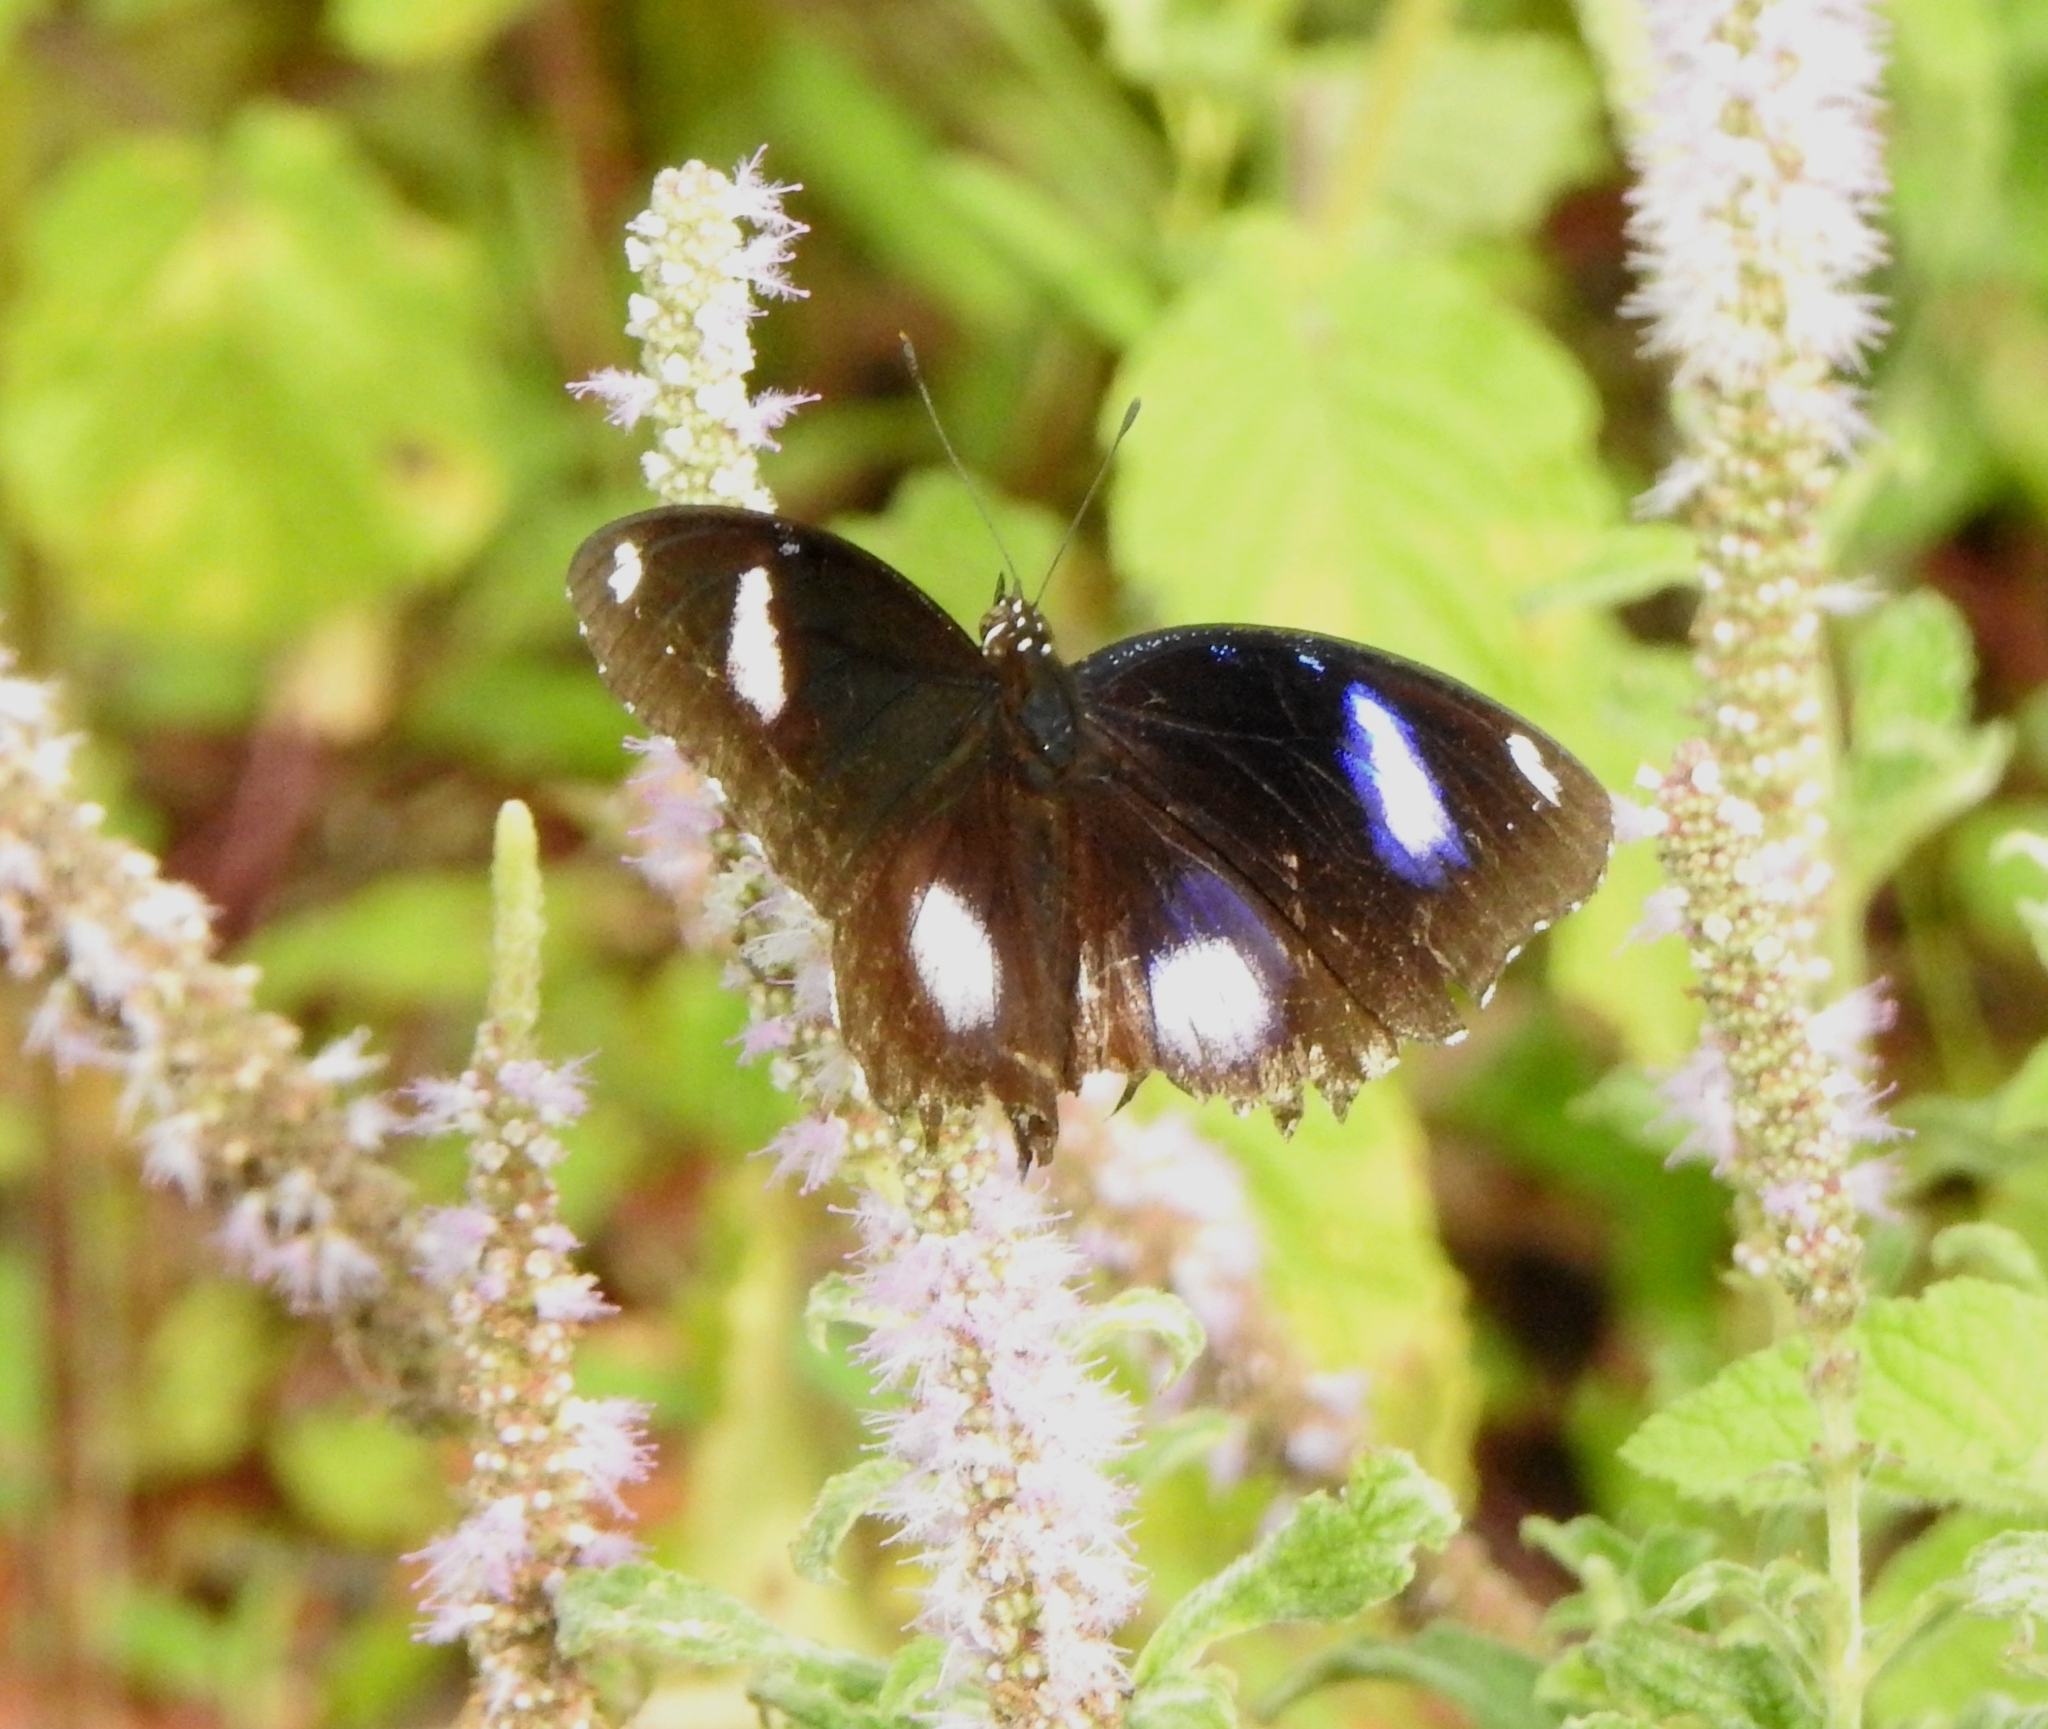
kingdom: Animalia
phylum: Arthropoda
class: Insecta
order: Lepidoptera
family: Nymphalidae
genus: Hypolimnas
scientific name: Hypolimnas bolina
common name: Great eggfly
